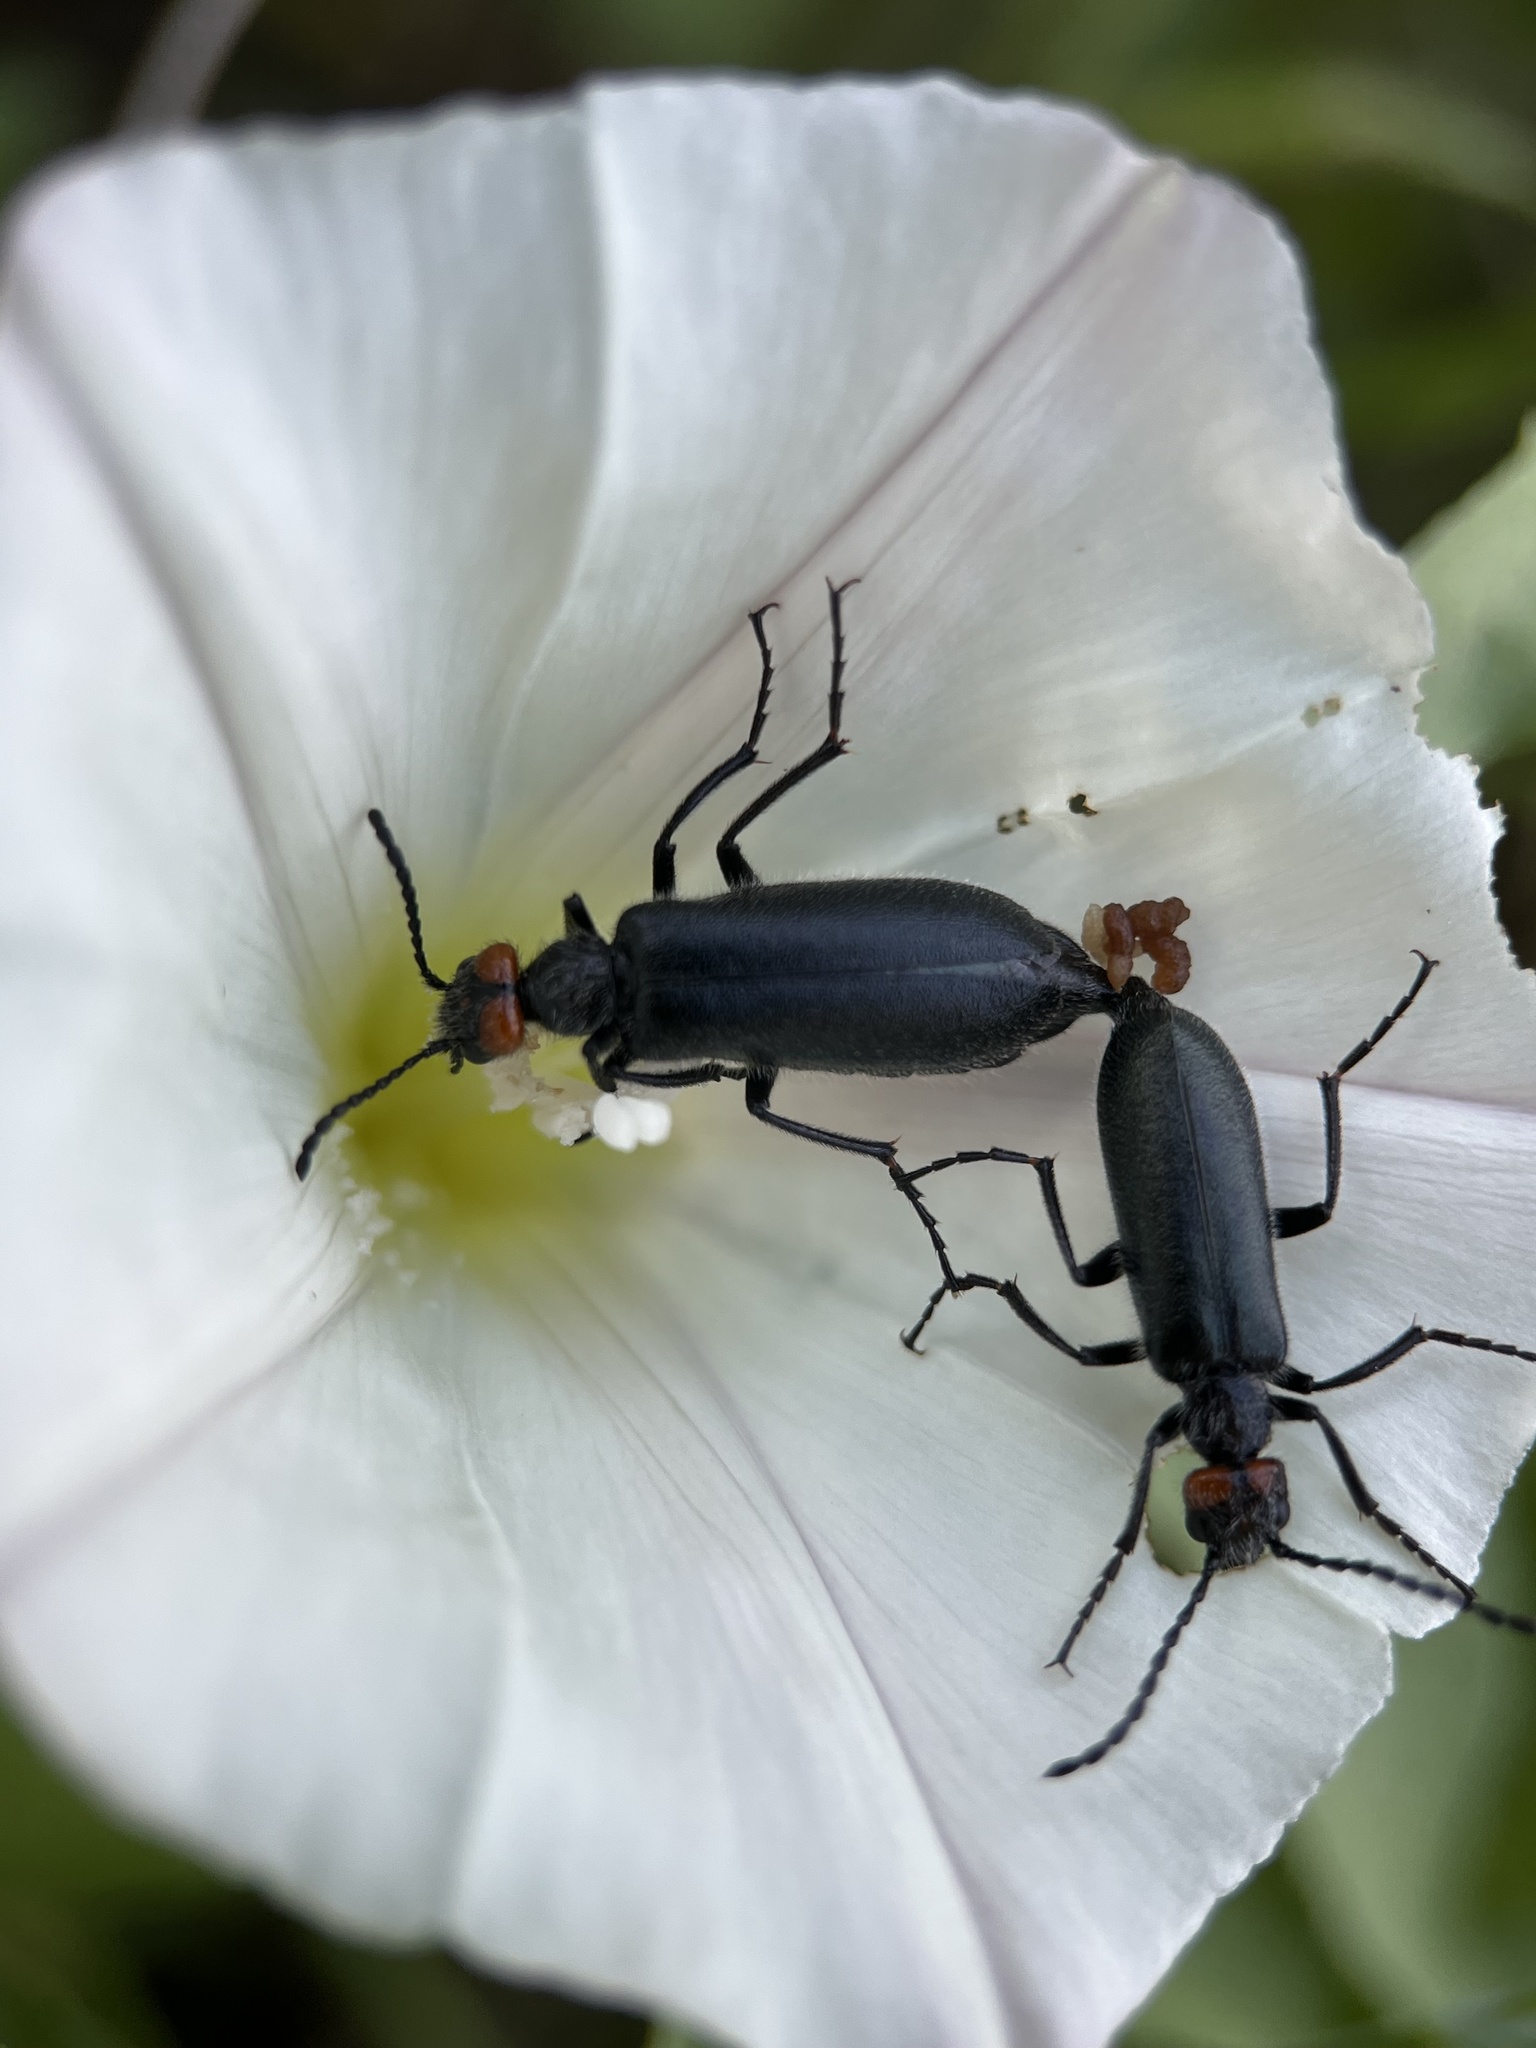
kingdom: Animalia
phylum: Arthropoda
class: Insecta
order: Coleoptera
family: Meloidae
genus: Lytta
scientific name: Lytta auriculata
